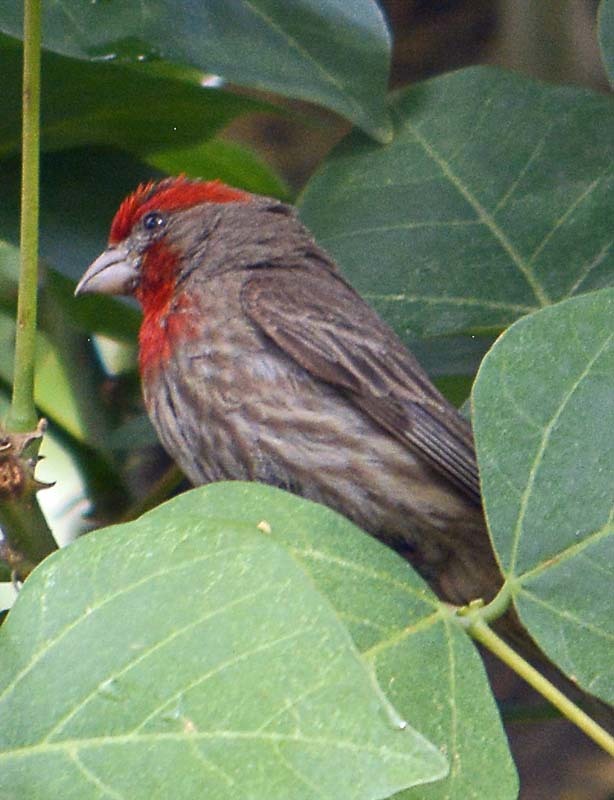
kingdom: Animalia
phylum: Chordata
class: Aves
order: Passeriformes
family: Fringillidae
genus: Haemorhous
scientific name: Haemorhous mexicanus
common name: House finch
